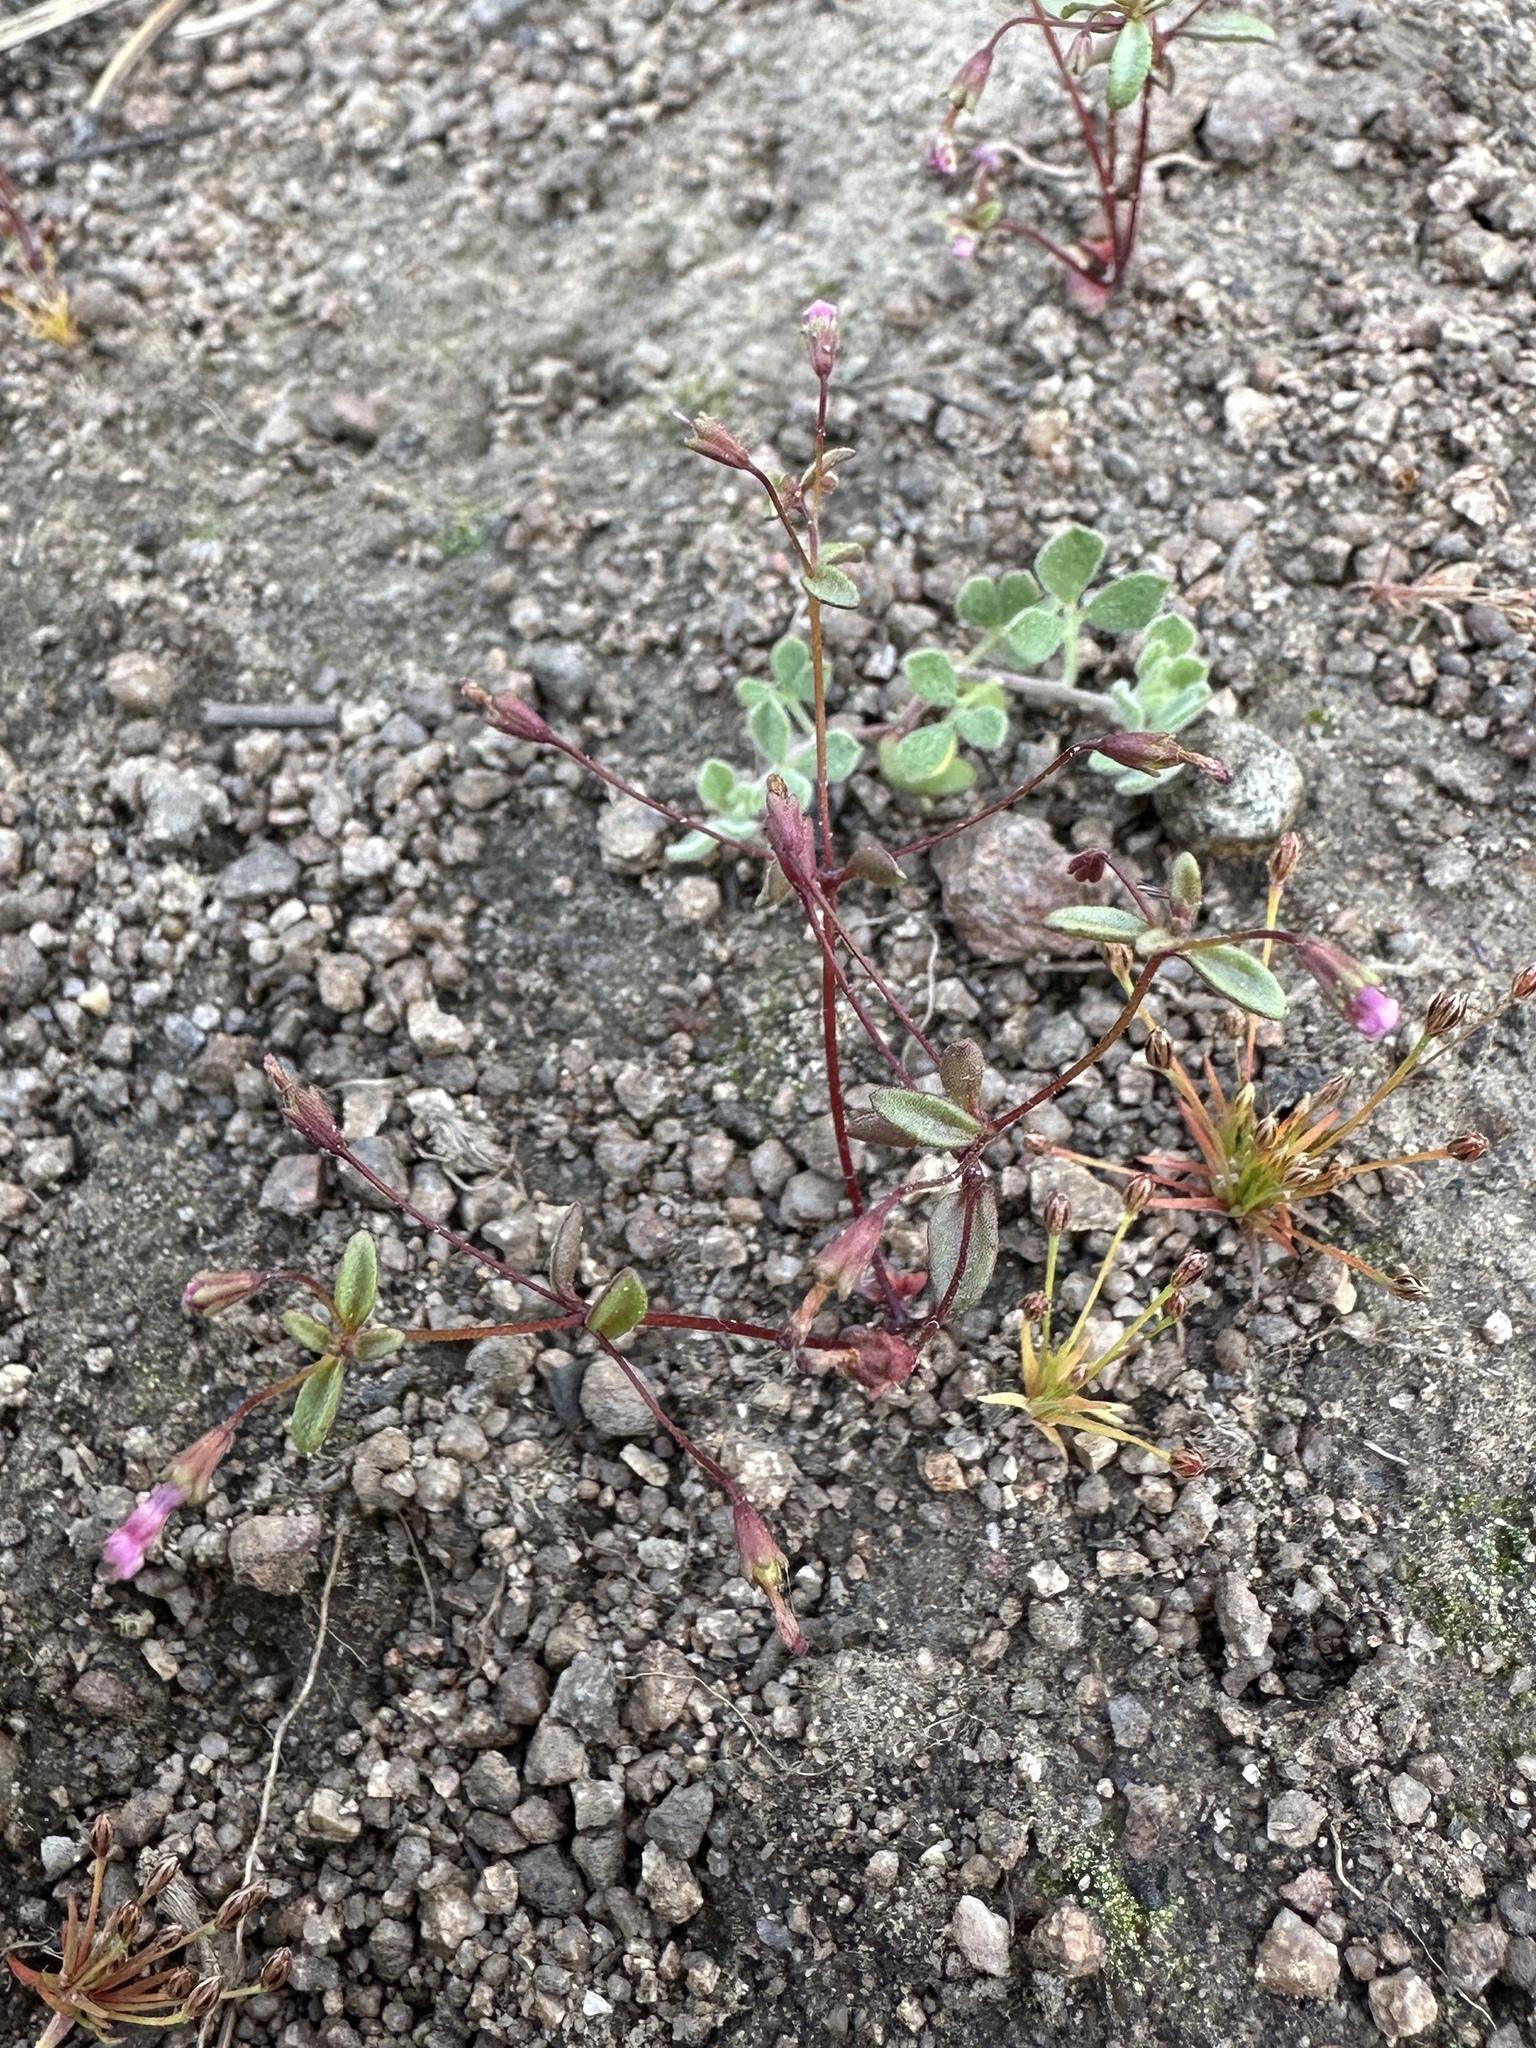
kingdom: Plantae
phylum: Tracheophyta
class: Magnoliopsida
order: Lamiales
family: Phrymaceae
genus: Erythranthe
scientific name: Erythranthe exigua
